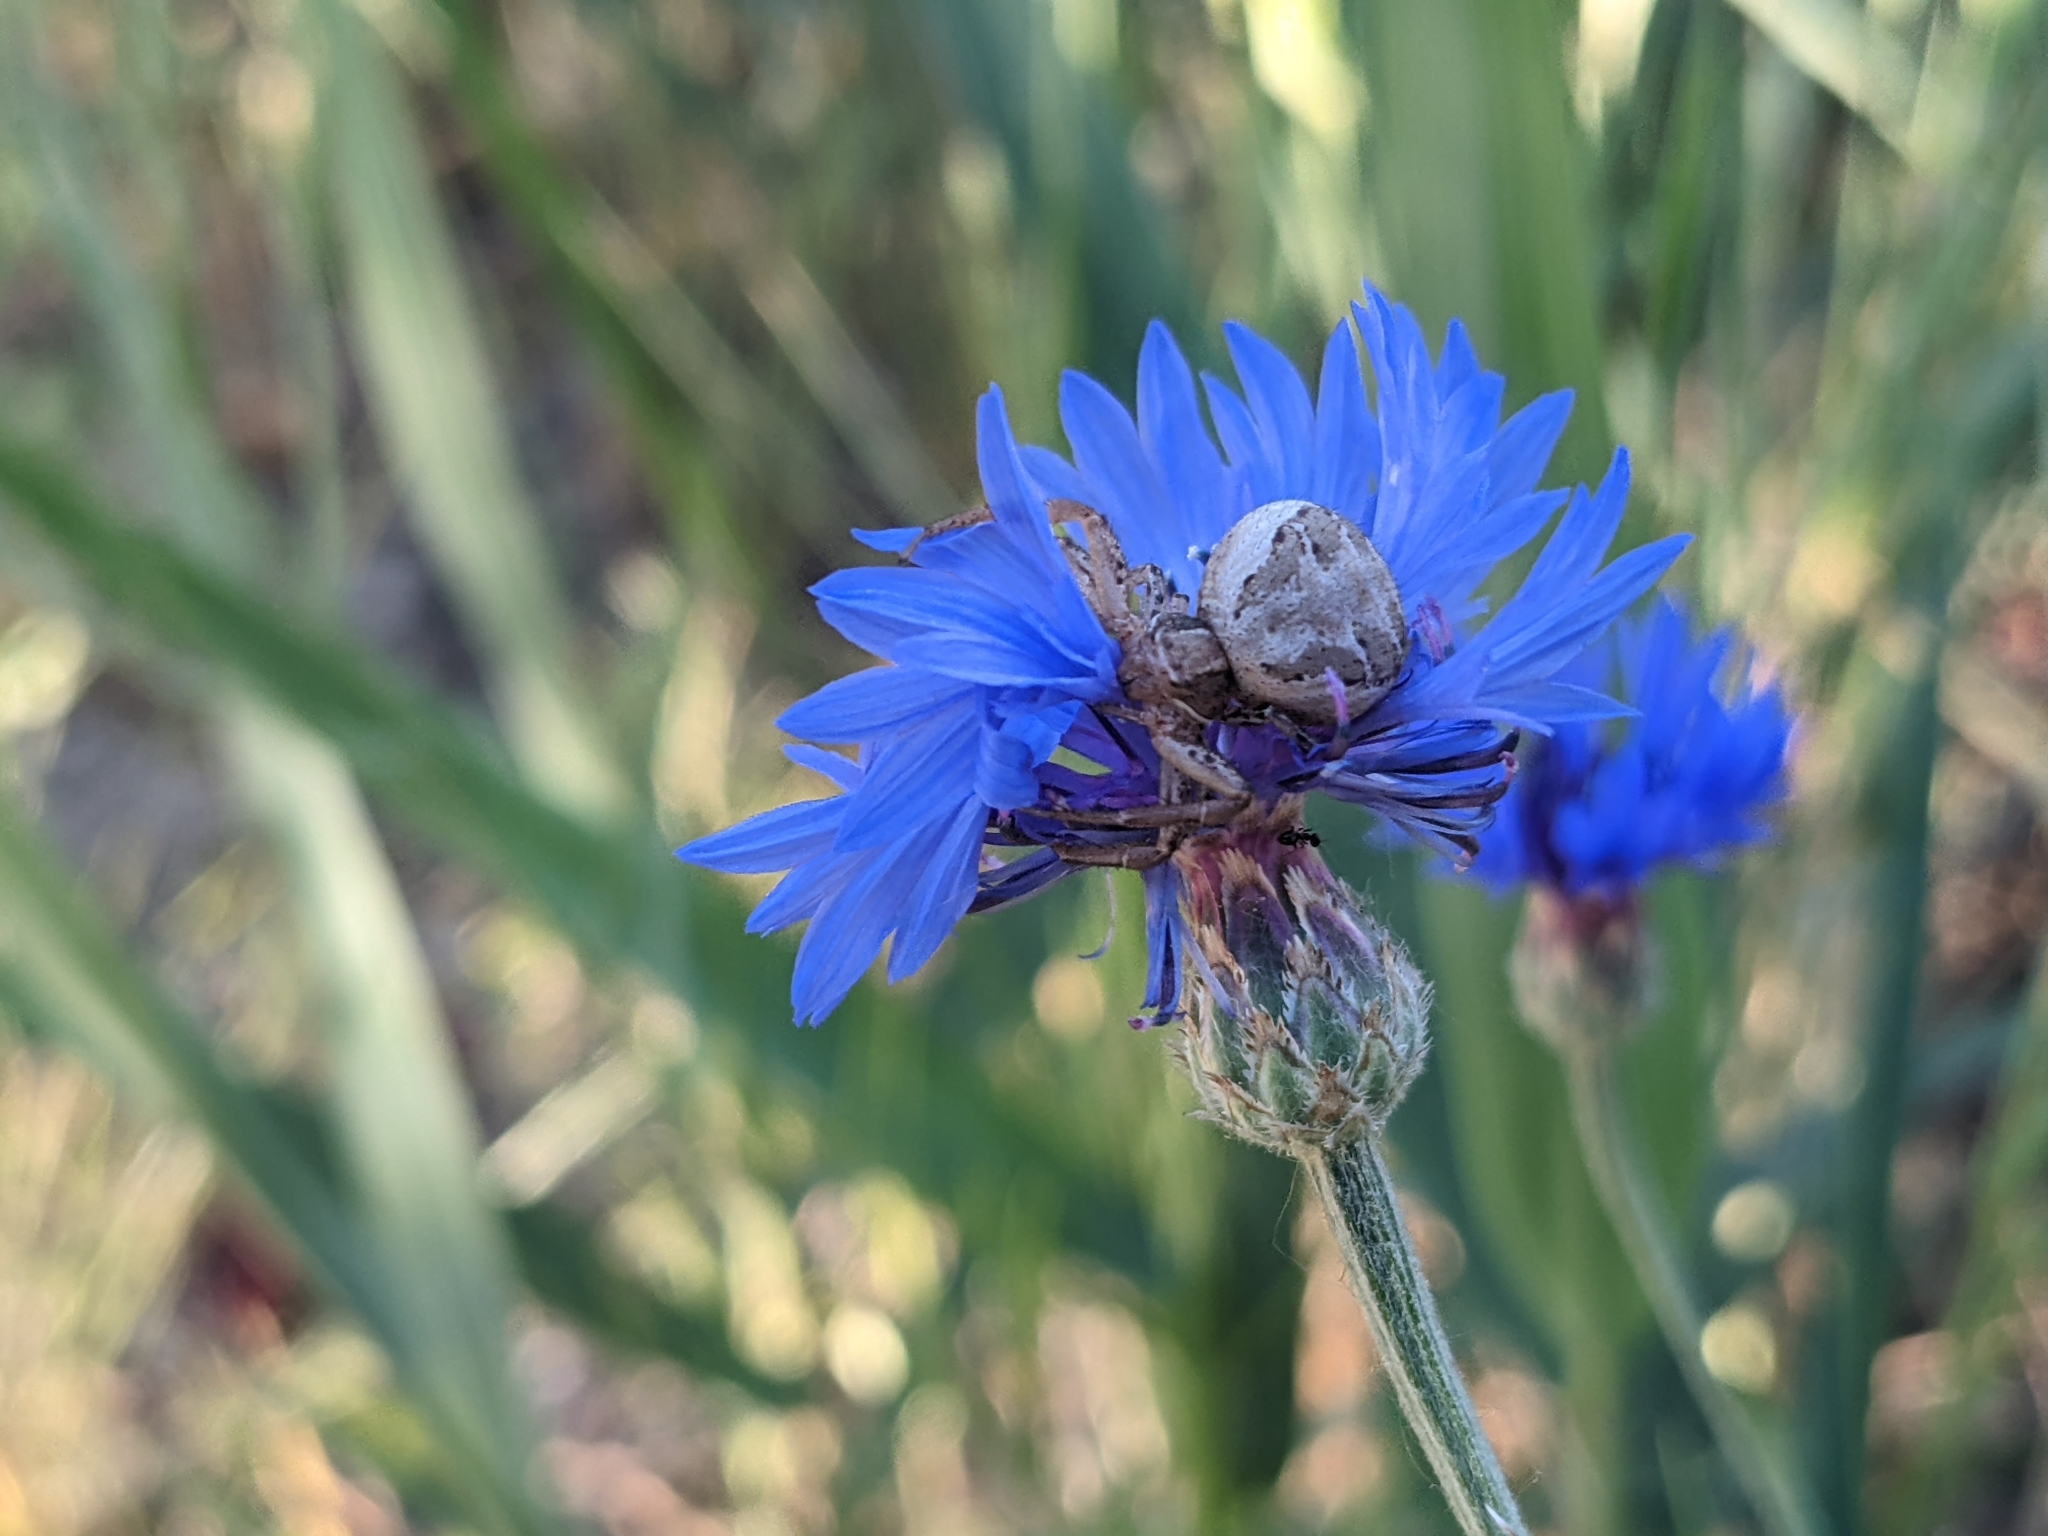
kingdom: Animalia
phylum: Arthropoda
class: Arachnida
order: Araneae
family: Thomisidae
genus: Xysticus
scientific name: Xysticus
